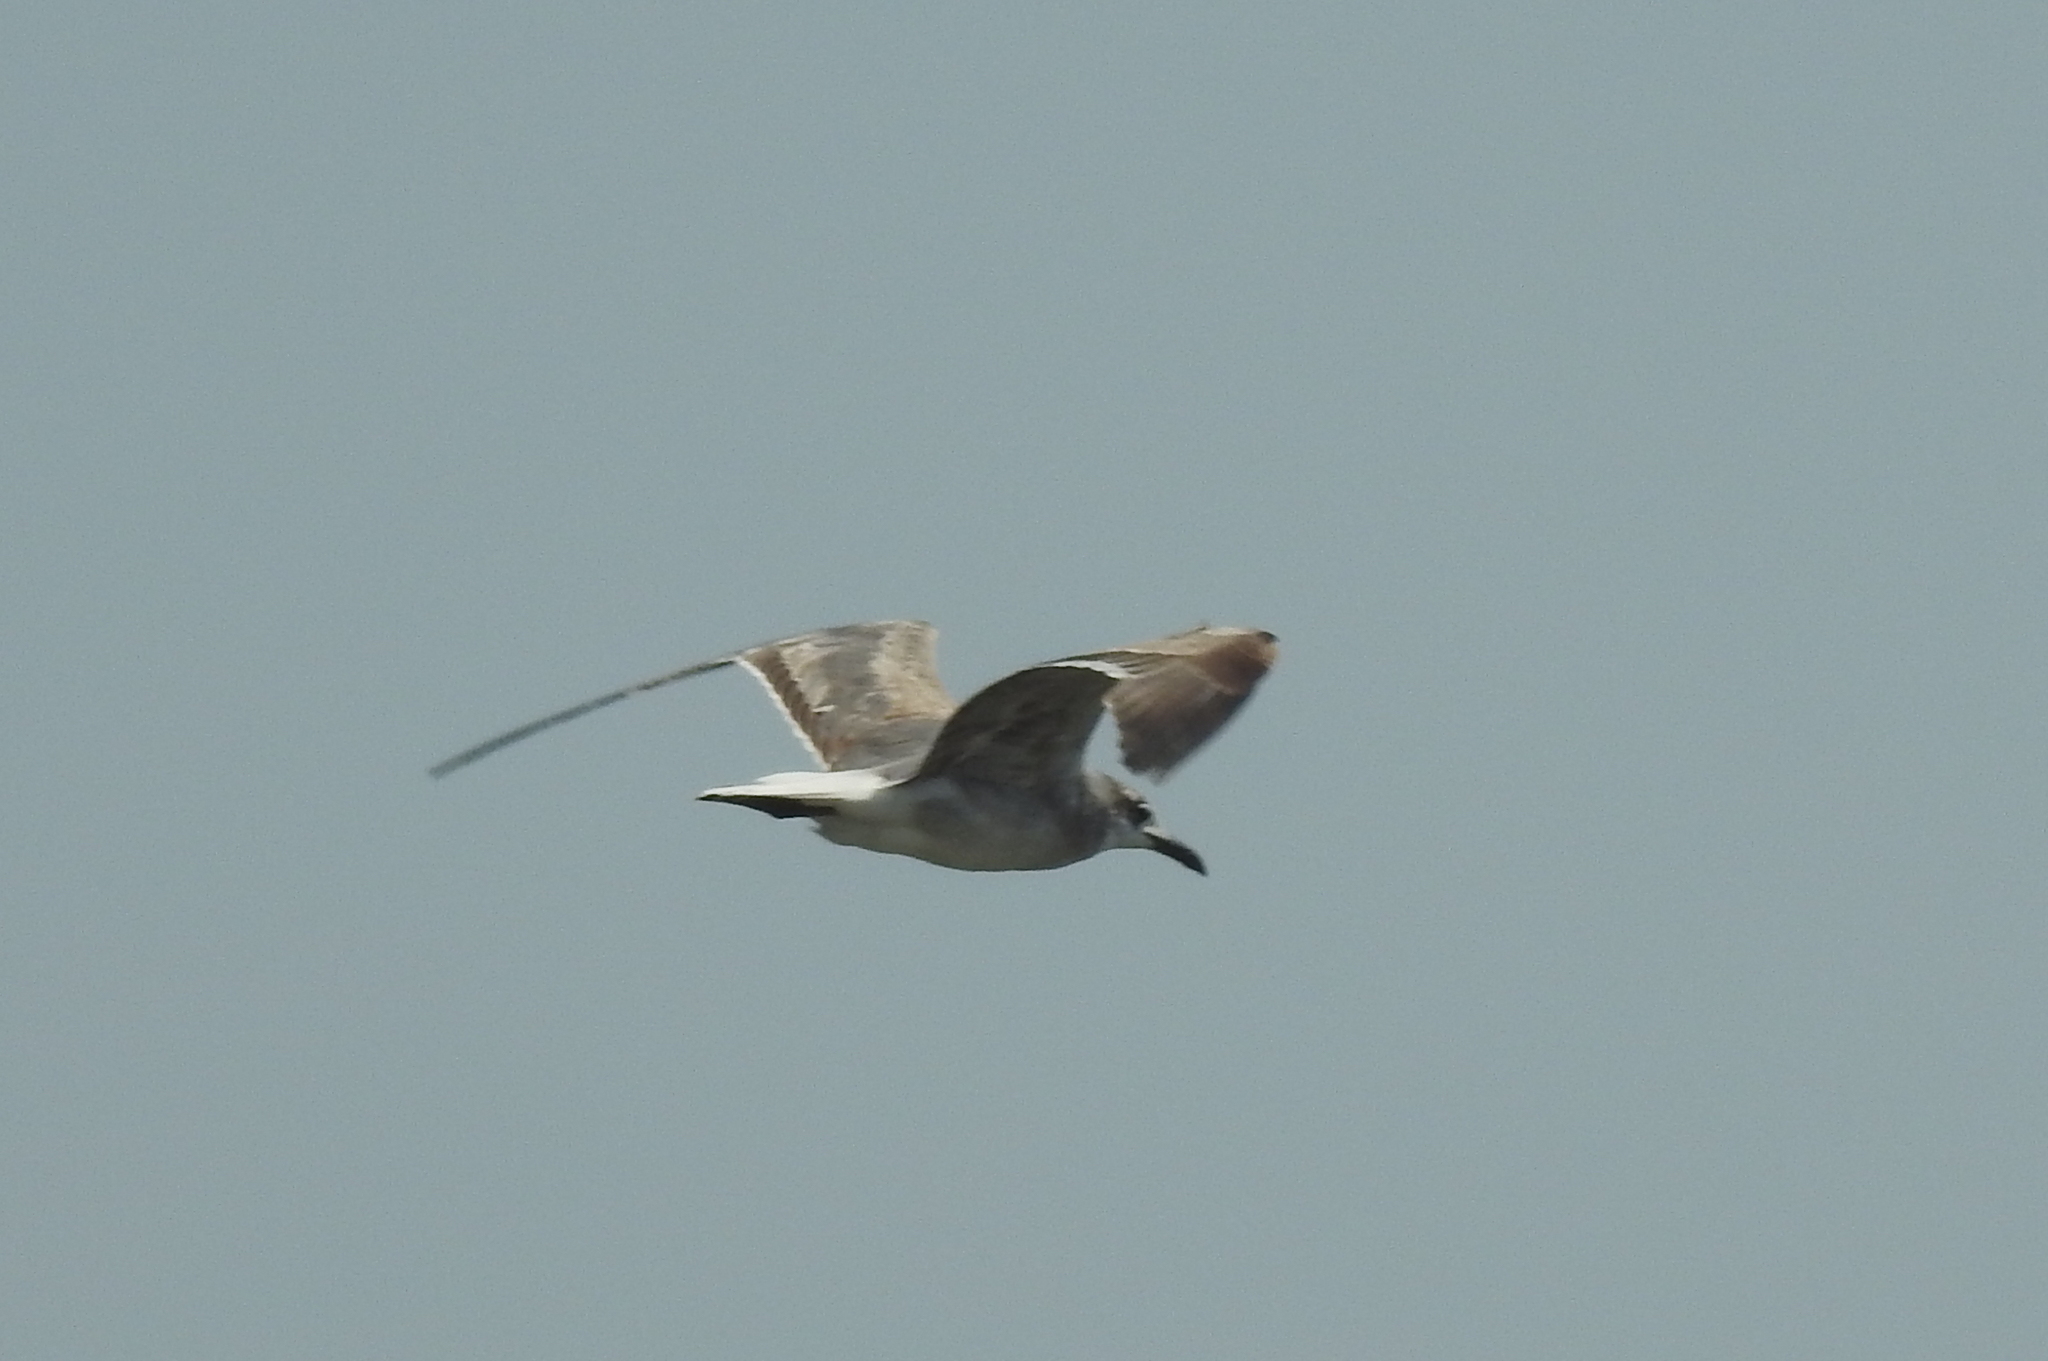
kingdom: Animalia
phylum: Chordata
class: Aves
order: Charadriiformes
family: Laridae
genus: Leucophaeus
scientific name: Leucophaeus atricilla
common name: Laughing gull
